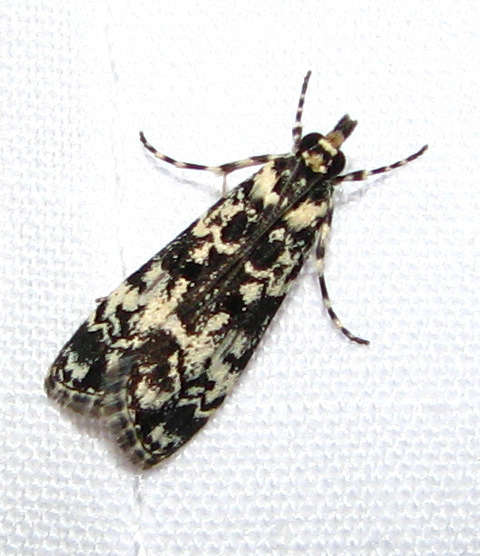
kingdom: Animalia
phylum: Arthropoda
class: Insecta
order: Lepidoptera
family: Crambidae
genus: Scoparia
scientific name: Scoparia exhibitalis
